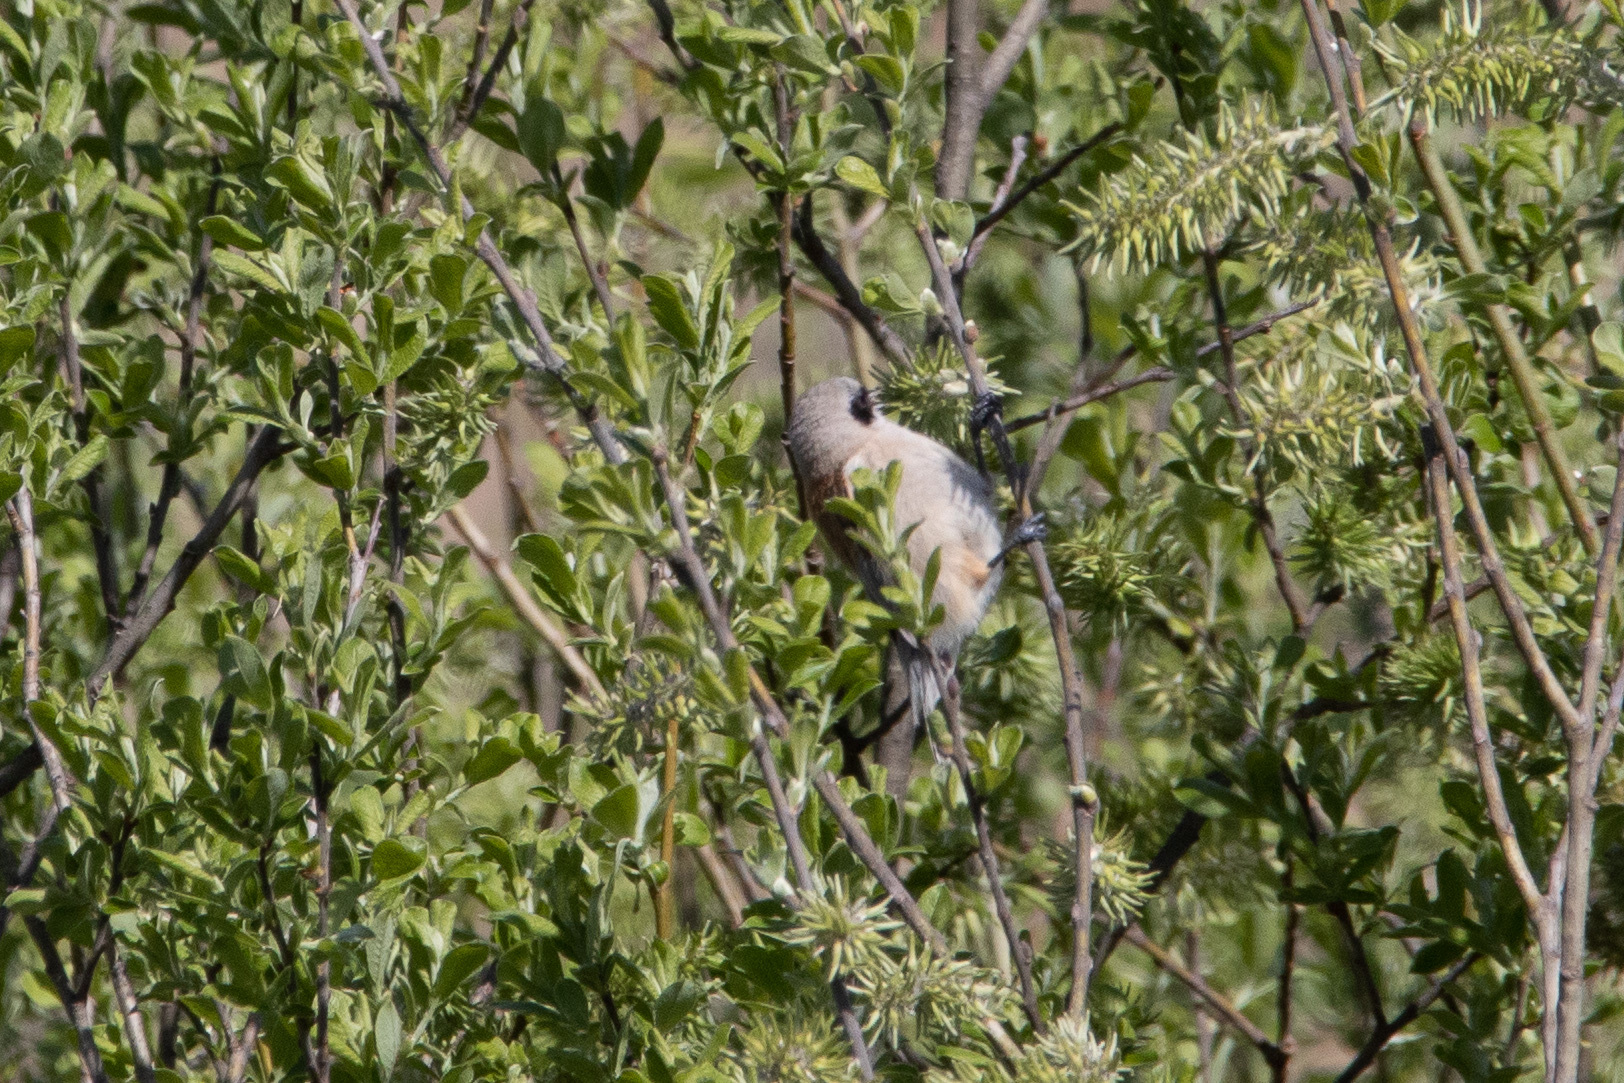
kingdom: Animalia
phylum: Chordata
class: Aves
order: Passeriformes
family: Remizidae
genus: Remiz
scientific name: Remiz pendulinus
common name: Eurasian penduline tit
